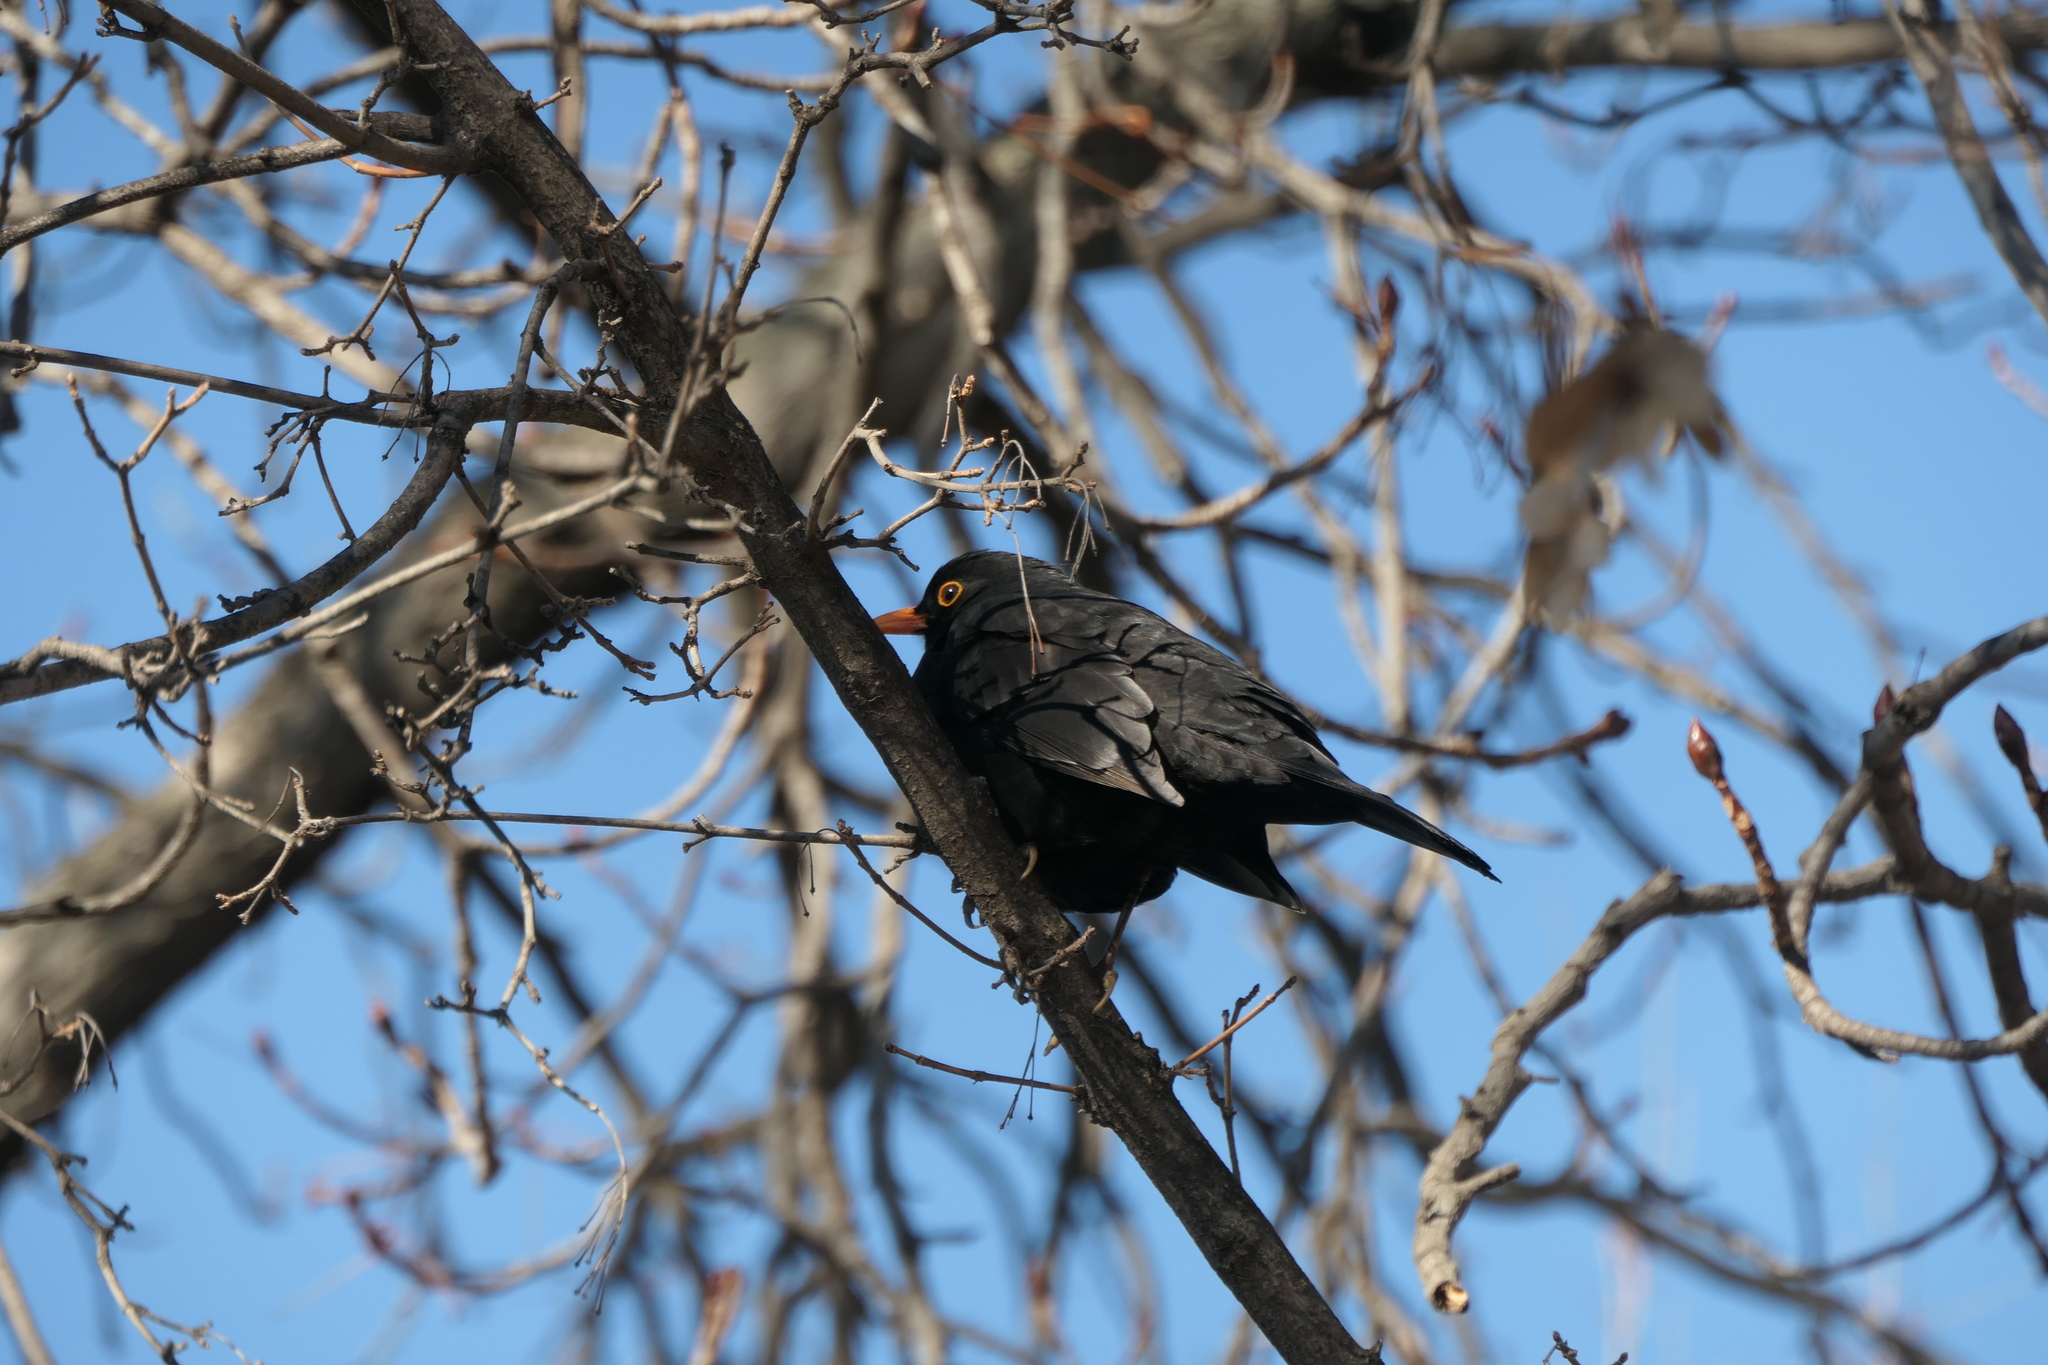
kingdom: Animalia
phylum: Chordata
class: Aves
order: Passeriformes
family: Turdidae
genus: Turdus
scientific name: Turdus merula
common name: Common blackbird
